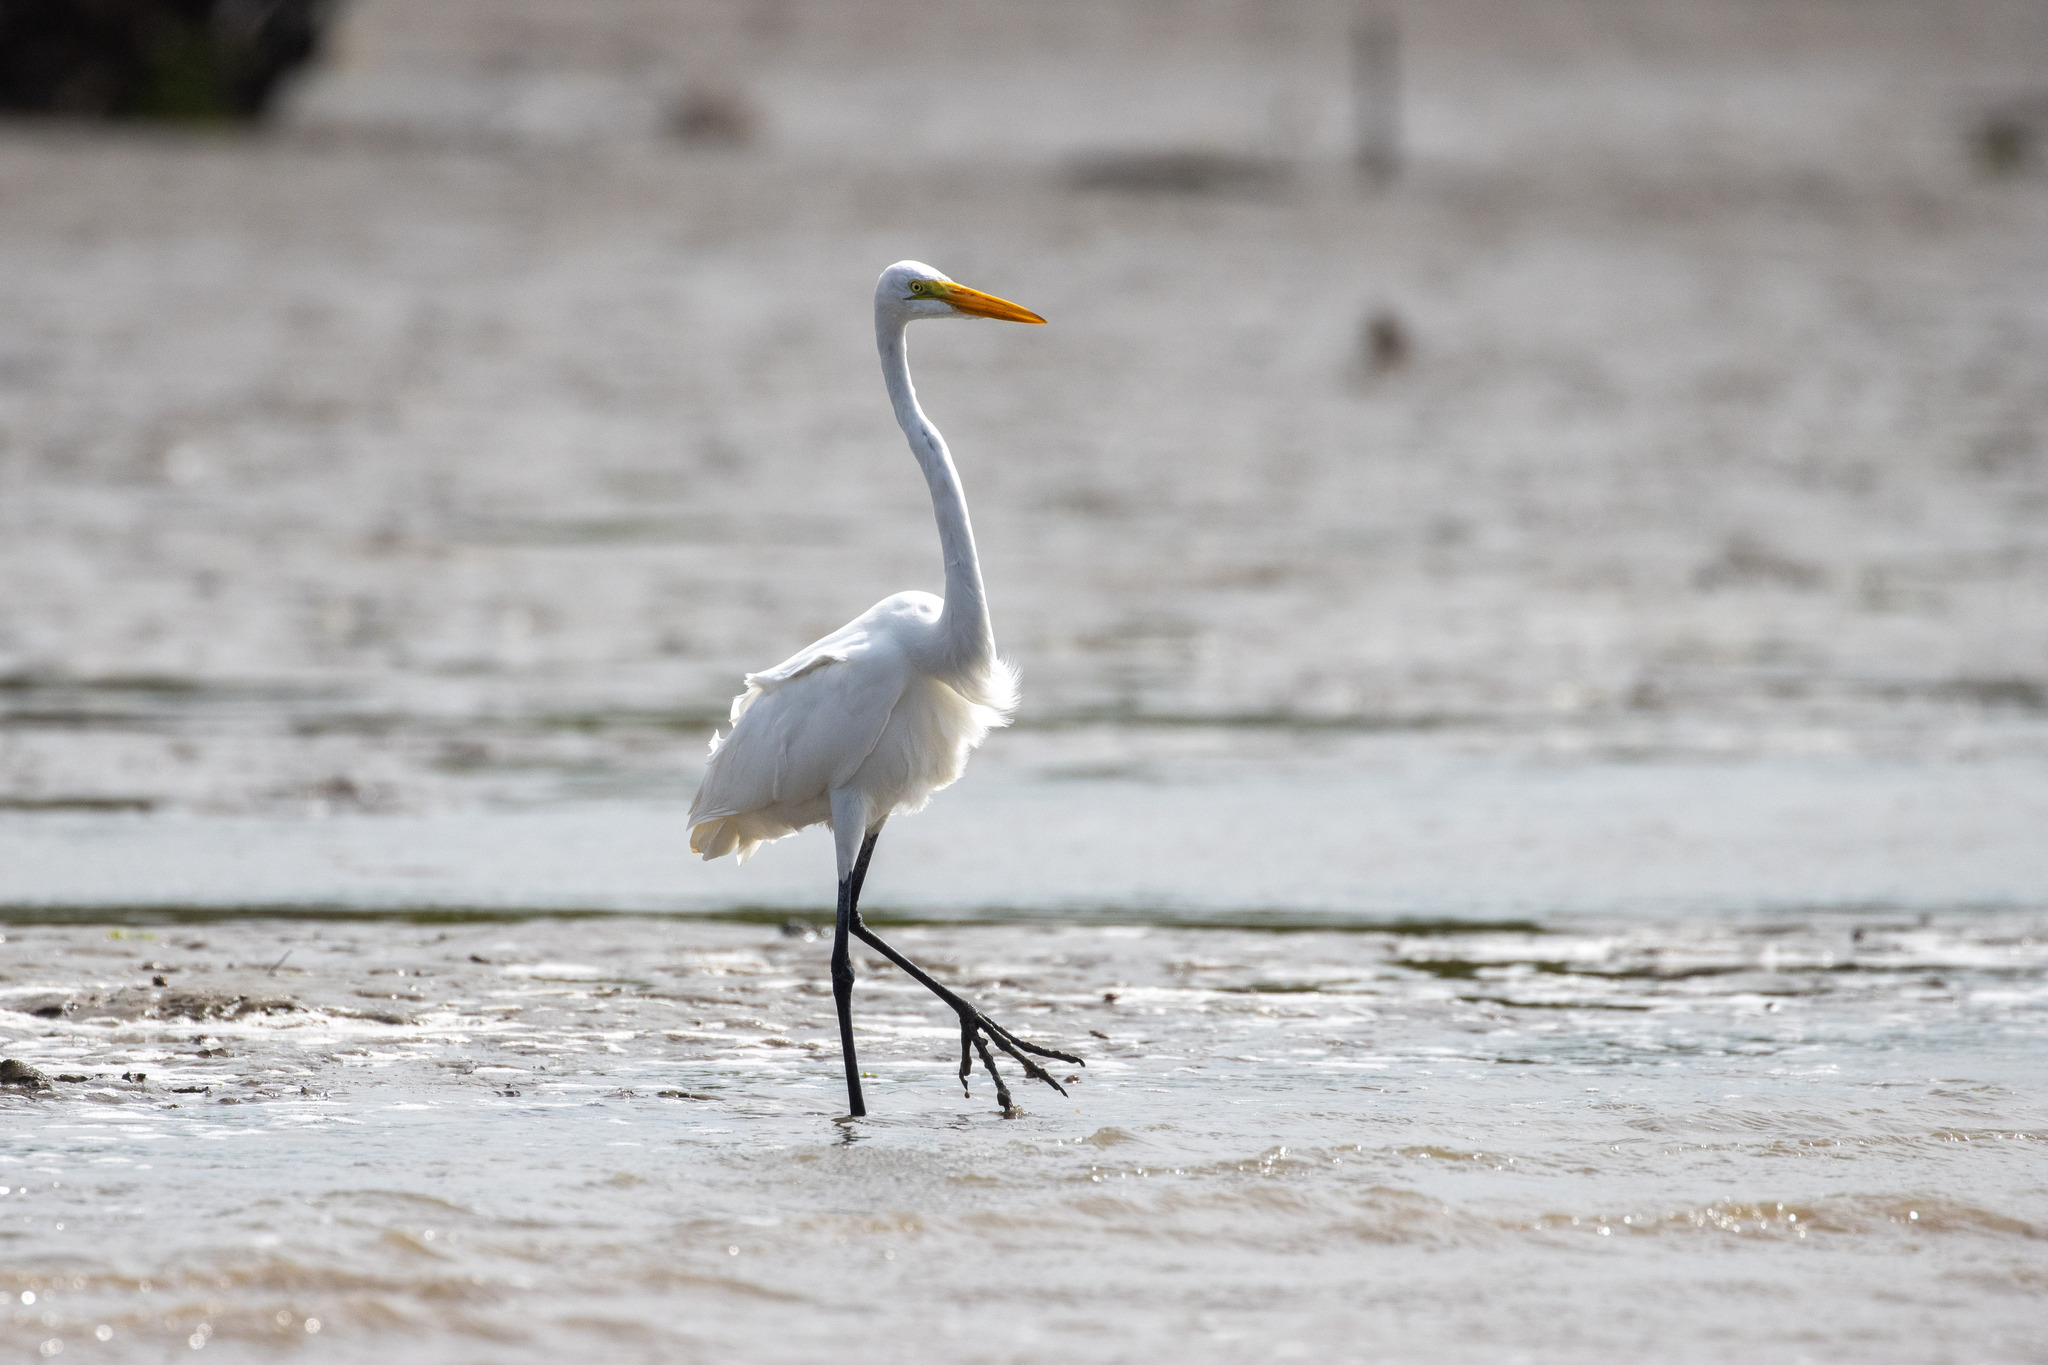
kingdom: Animalia
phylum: Chordata
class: Aves
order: Pelecaniformes
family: Ardeidae
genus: Ardea
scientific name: Ardea alba
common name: Great egret
